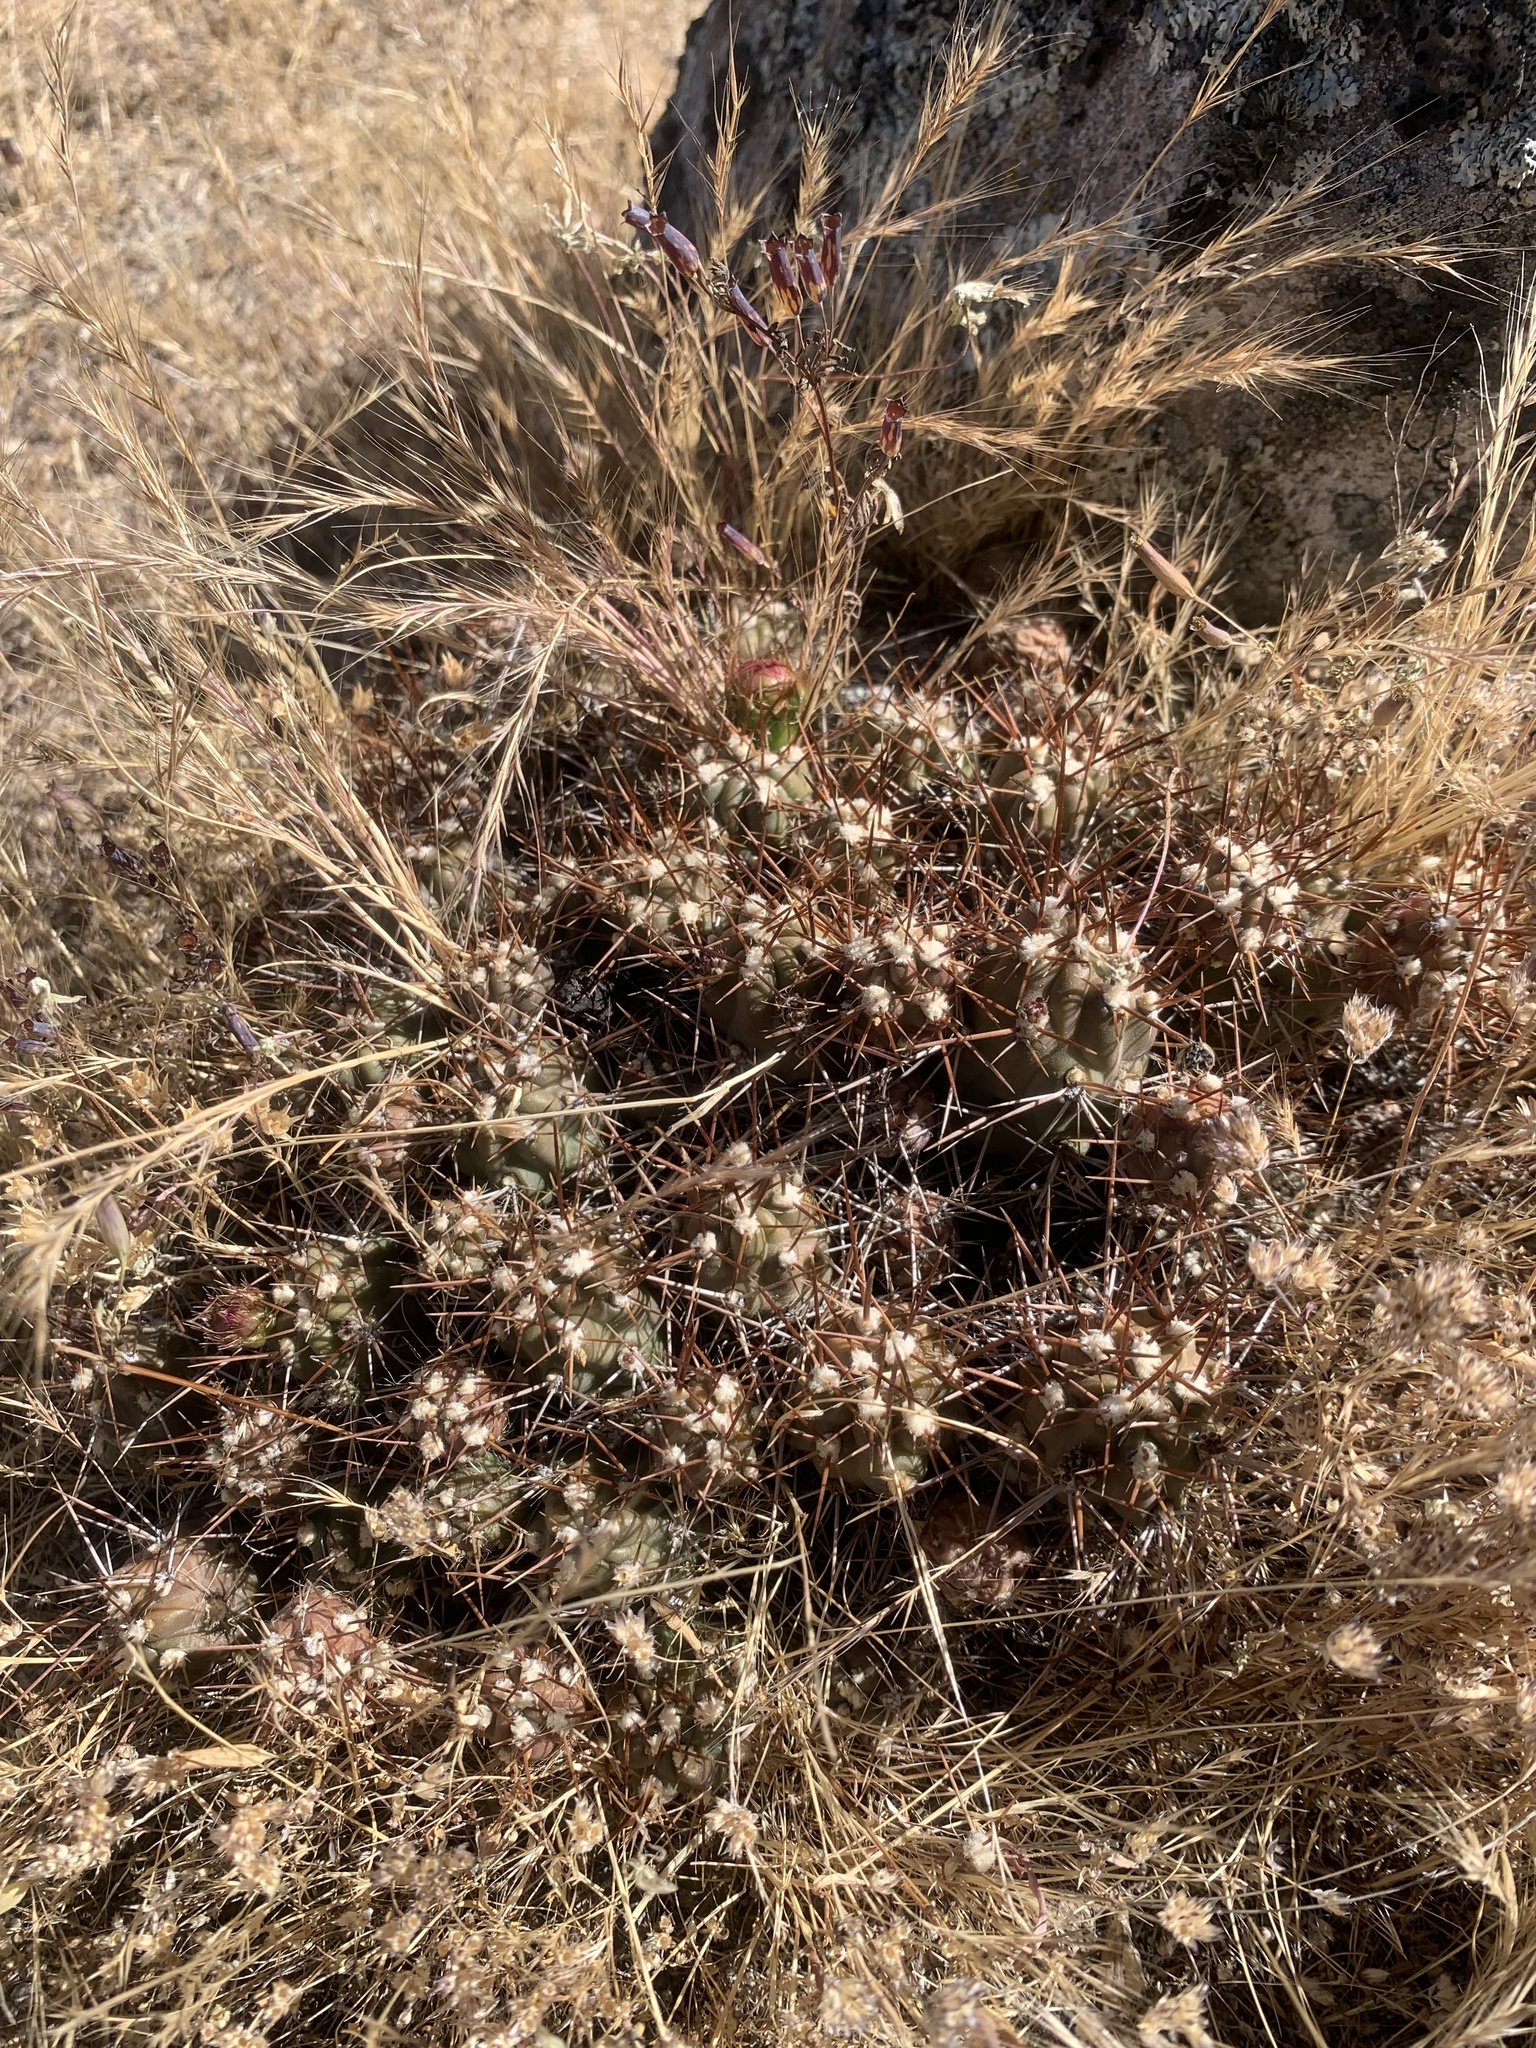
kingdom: Plantae
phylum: Tracheophyta
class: Magnoliopsida
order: Caryophyllales
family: Cactaceae
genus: Austrocylindropuntia
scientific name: Austrocylindropuntia lauliacoana
